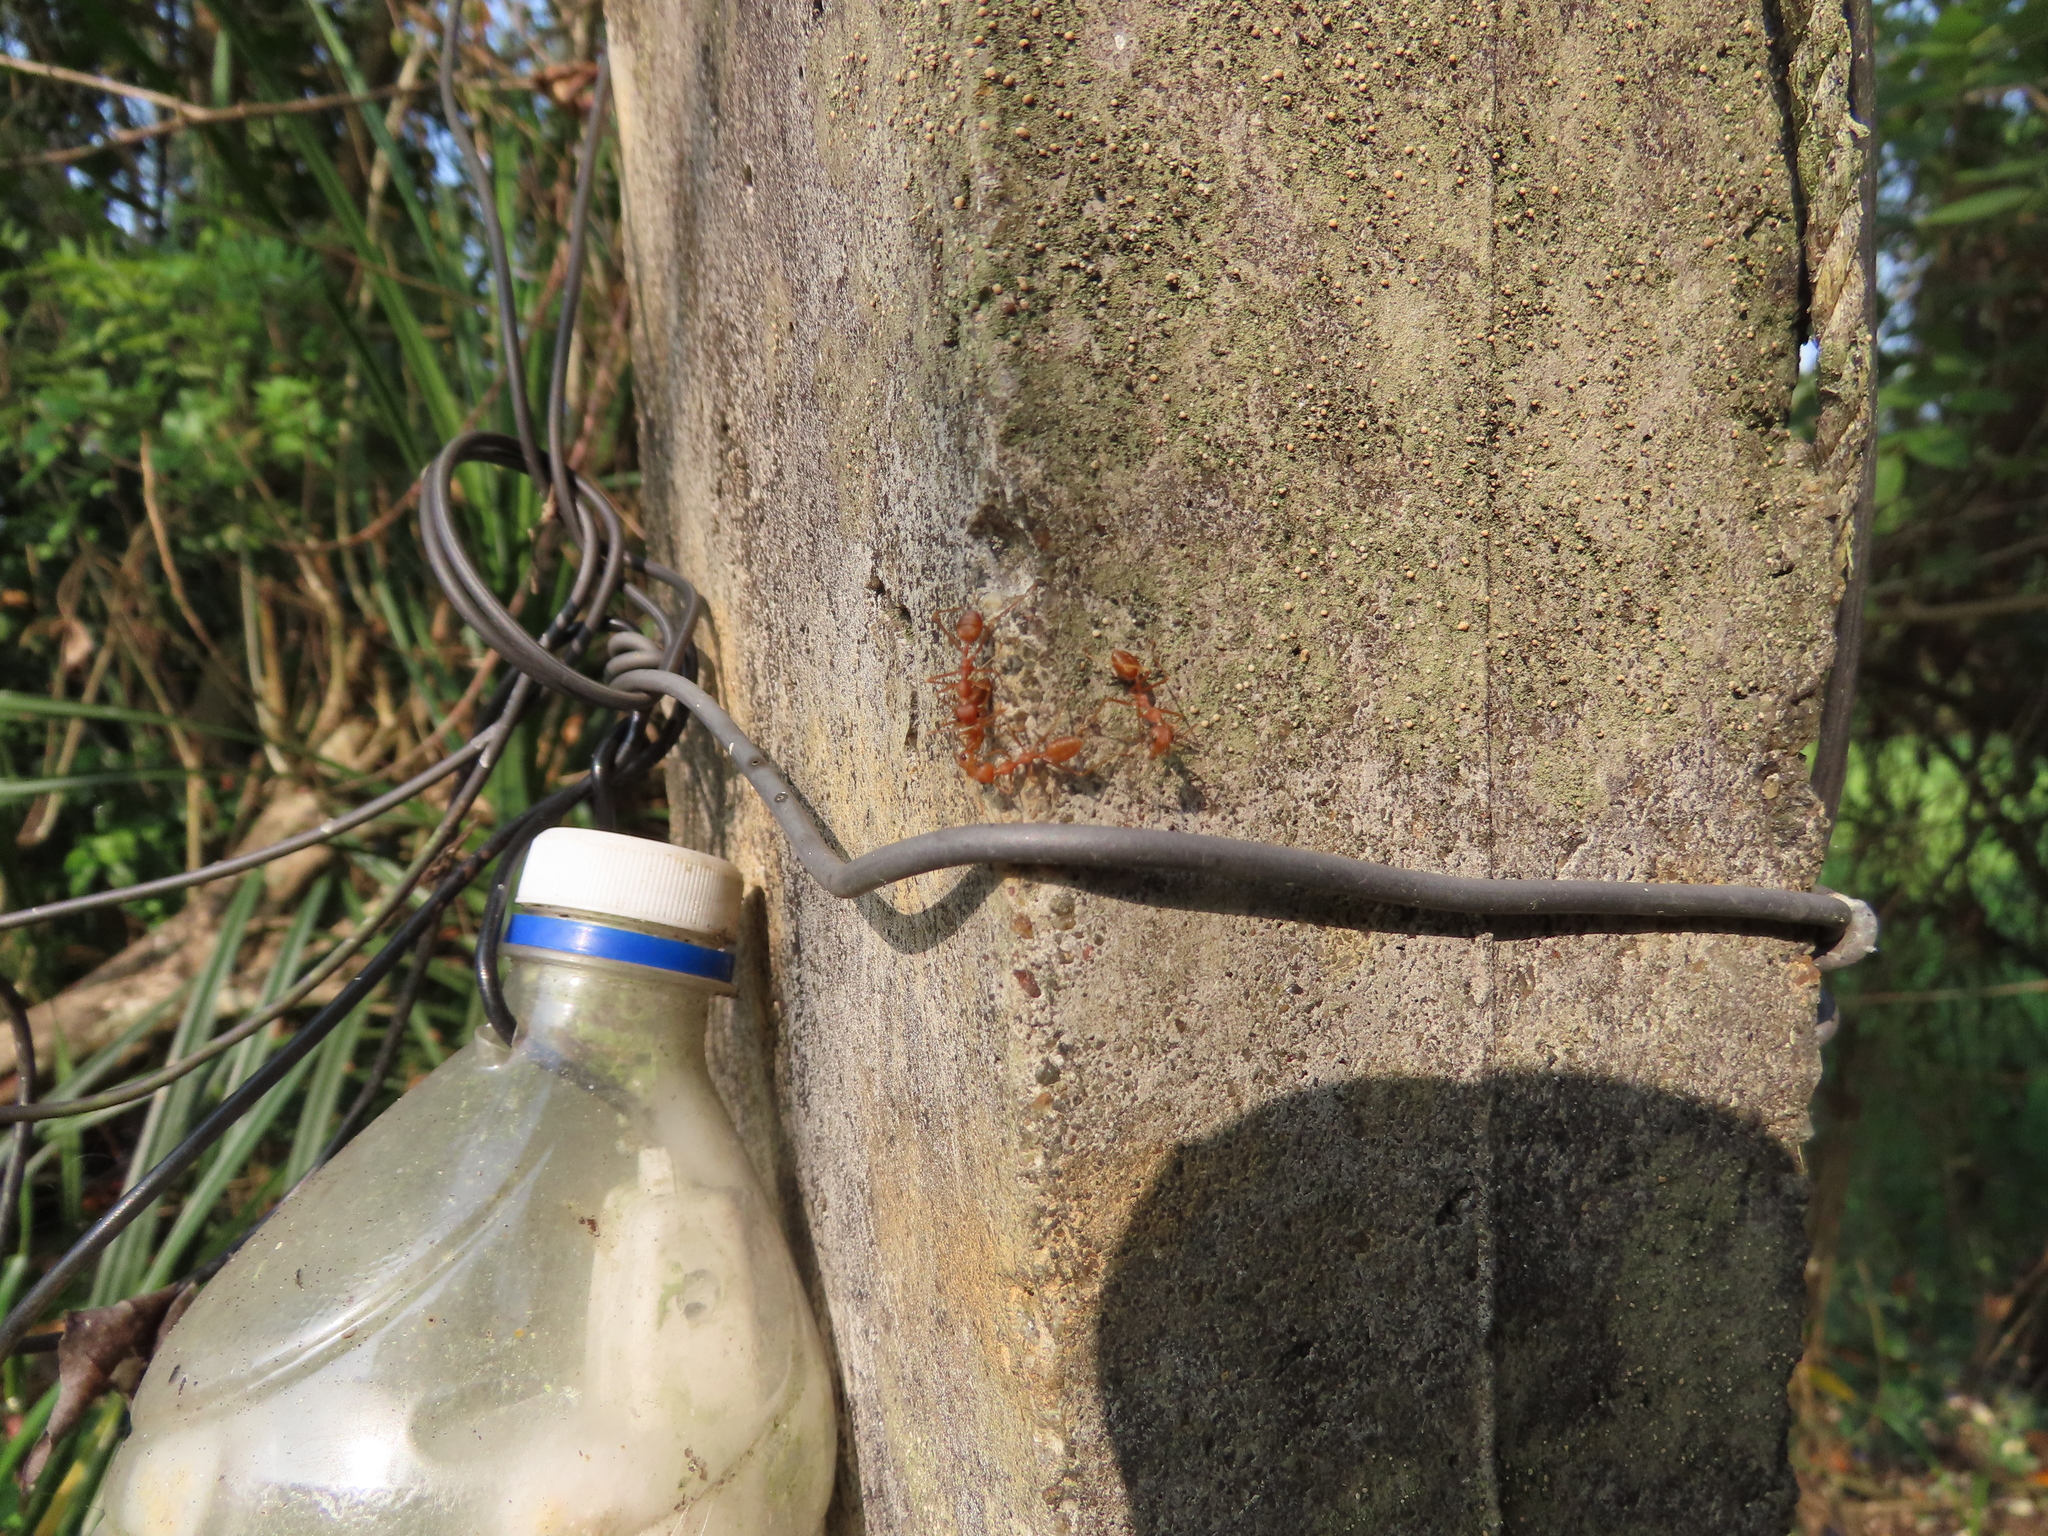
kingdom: Animalia
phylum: Arthropoda
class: Insecta
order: Hymenoptera
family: Formicidae
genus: Oecophylla
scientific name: Oecophylla smaragdina
